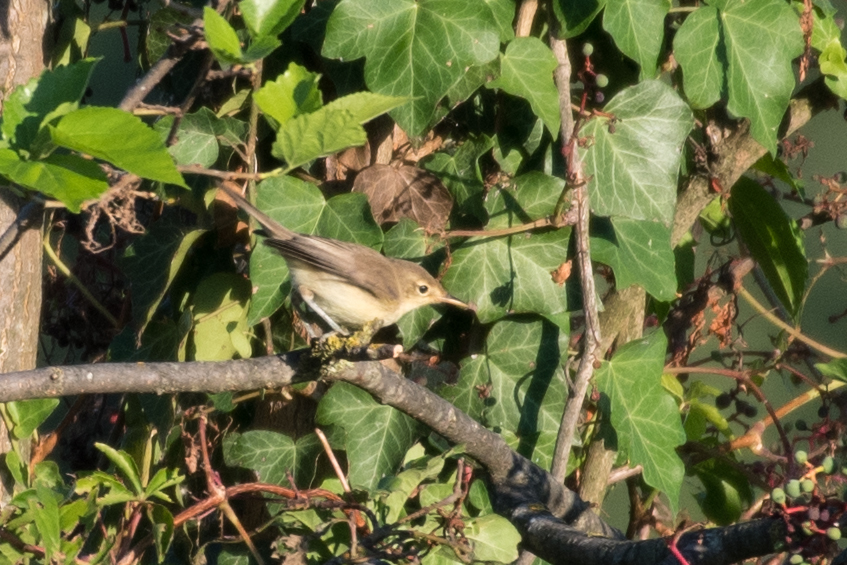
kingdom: Animalia
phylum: Chordata
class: Aves
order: Passeriformes
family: Acrocephalidae
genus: Hippolais
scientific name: Hippolais polyglotta
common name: Melodious warbler
